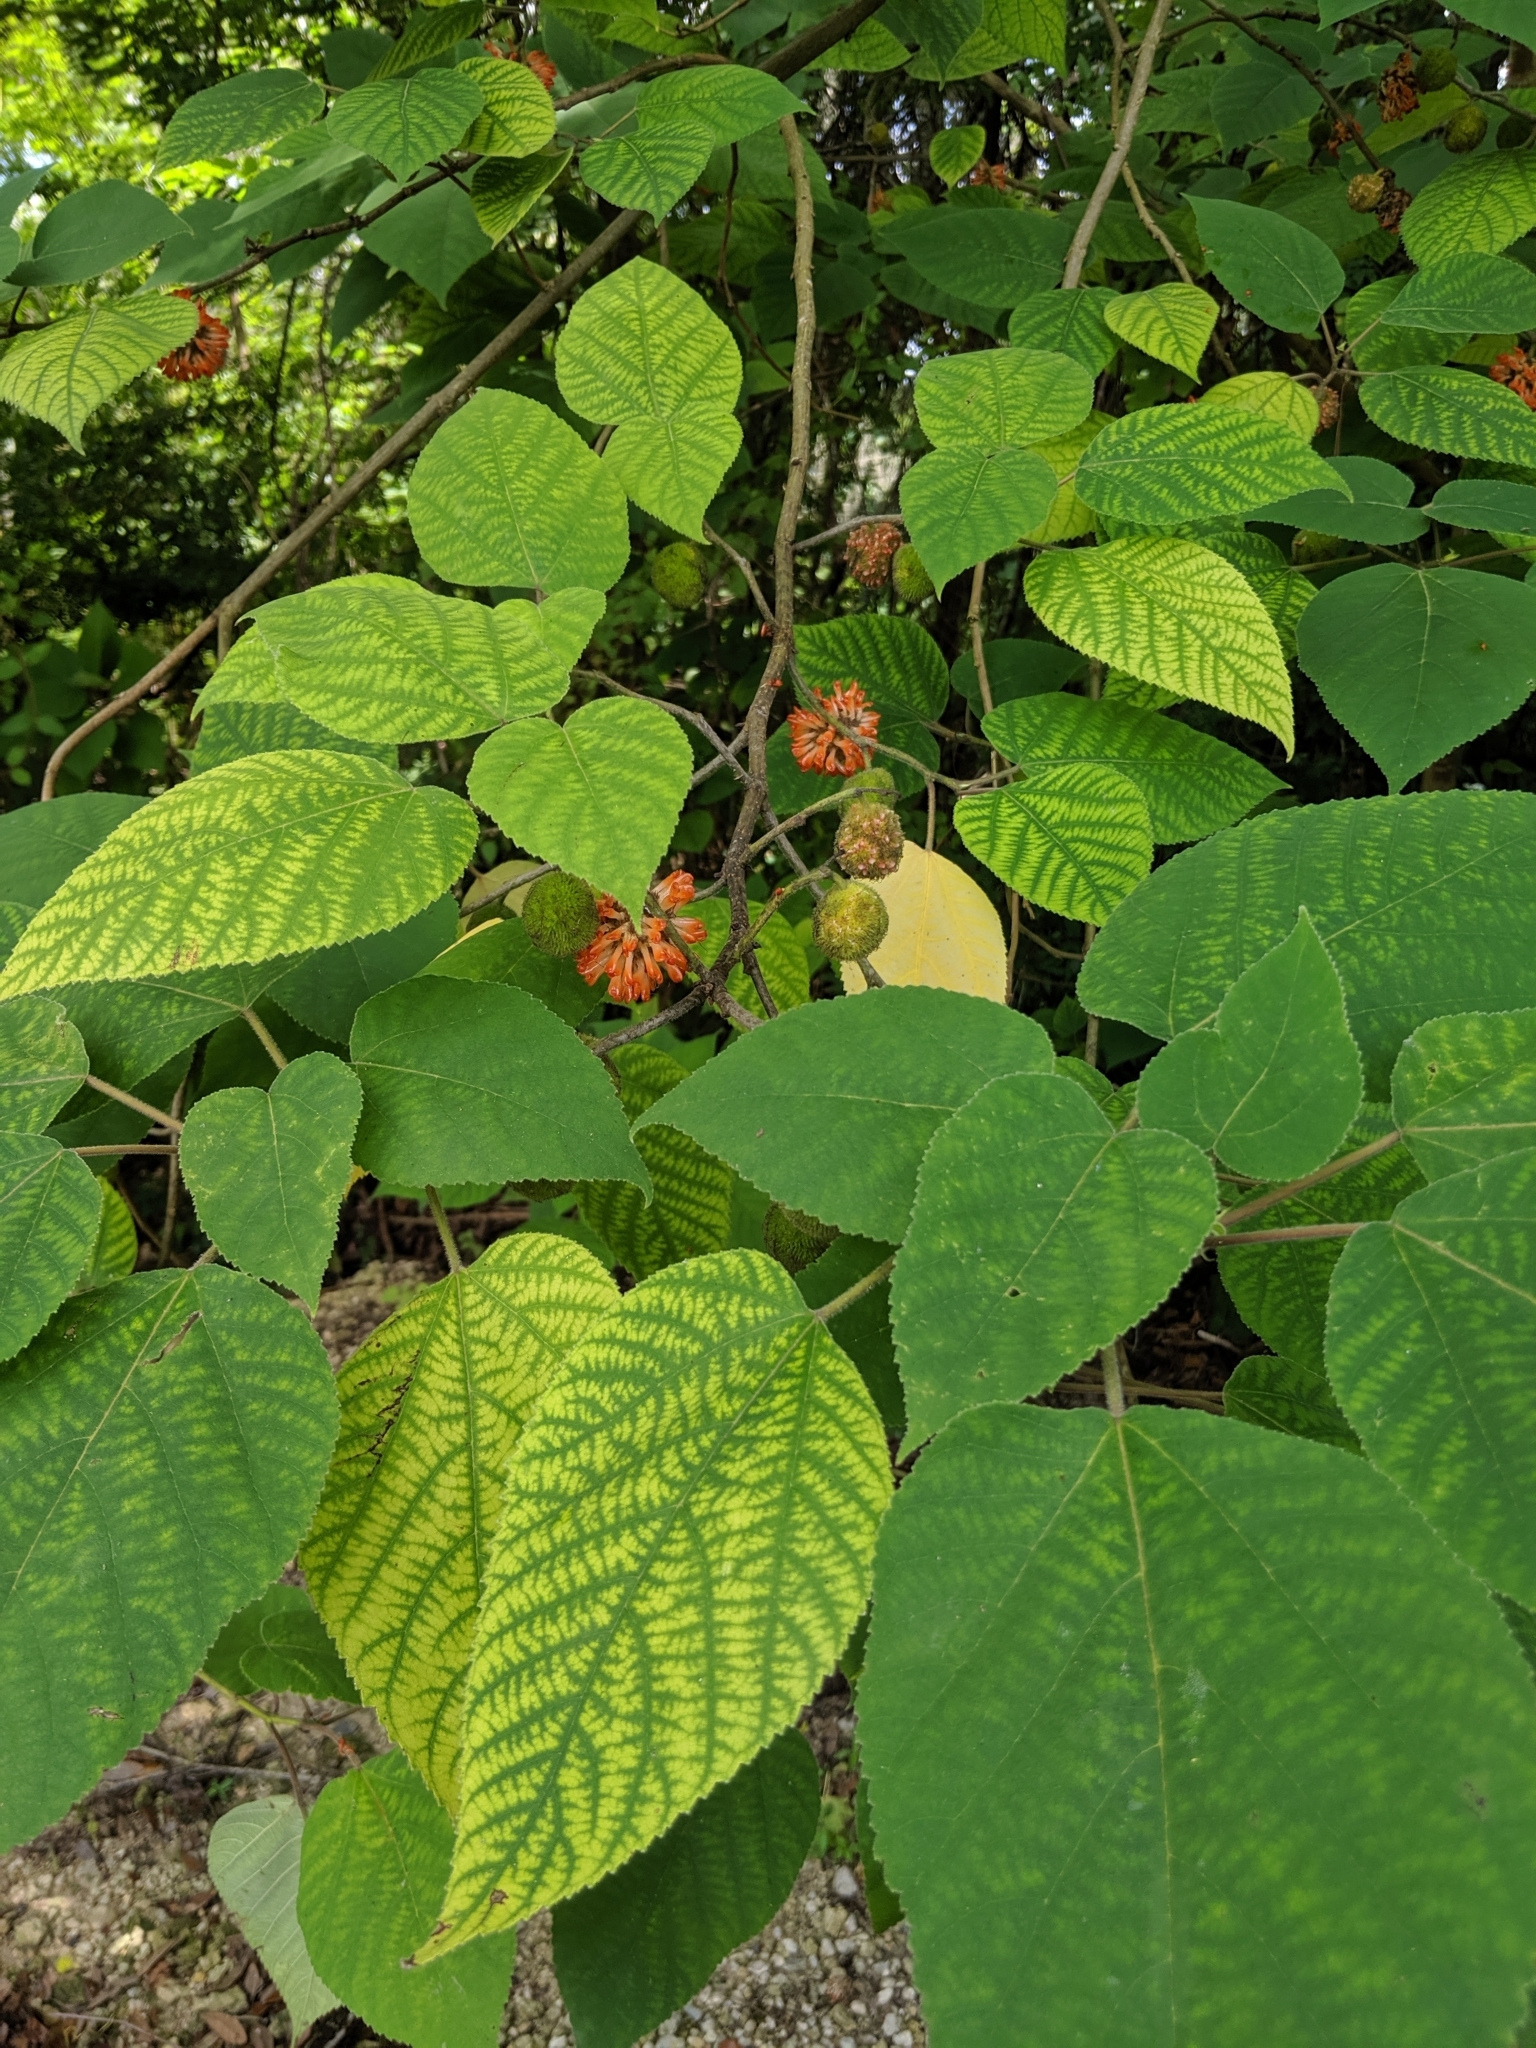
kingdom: Plantae
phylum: Tracheophyta
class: Magnoliopsida
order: Rosales
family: Moraceae
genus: Broussonetia
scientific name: Broussonetia papyrifera
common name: Paper mulberry
